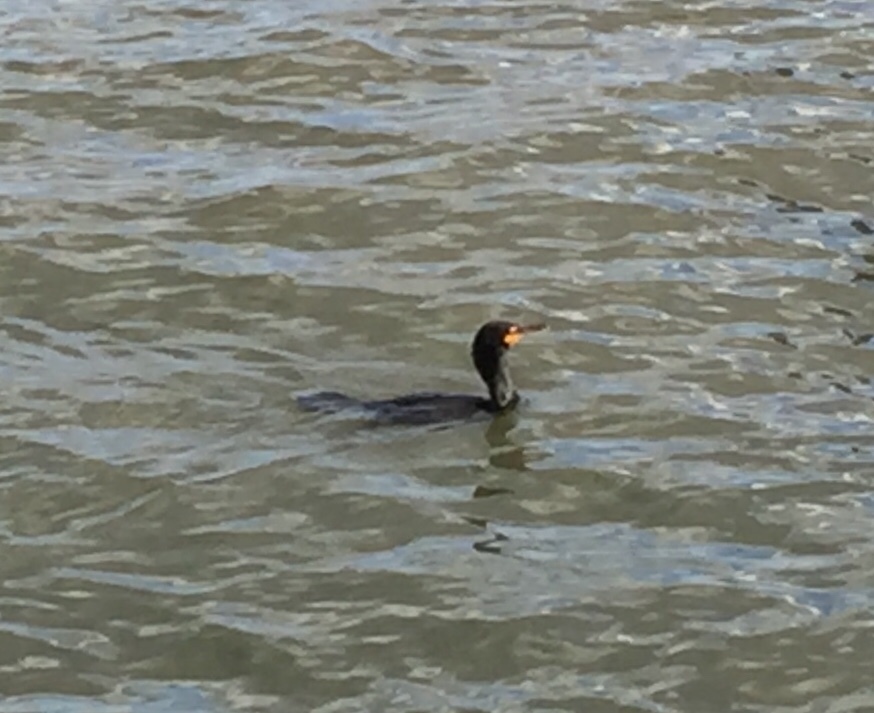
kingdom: Animalia
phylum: Chordata
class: Aves
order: Suliformes
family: Phalacrocoracidae
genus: Phalacrocorax
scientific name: Phalacrocorax auritus
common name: Double-crested cormorant
